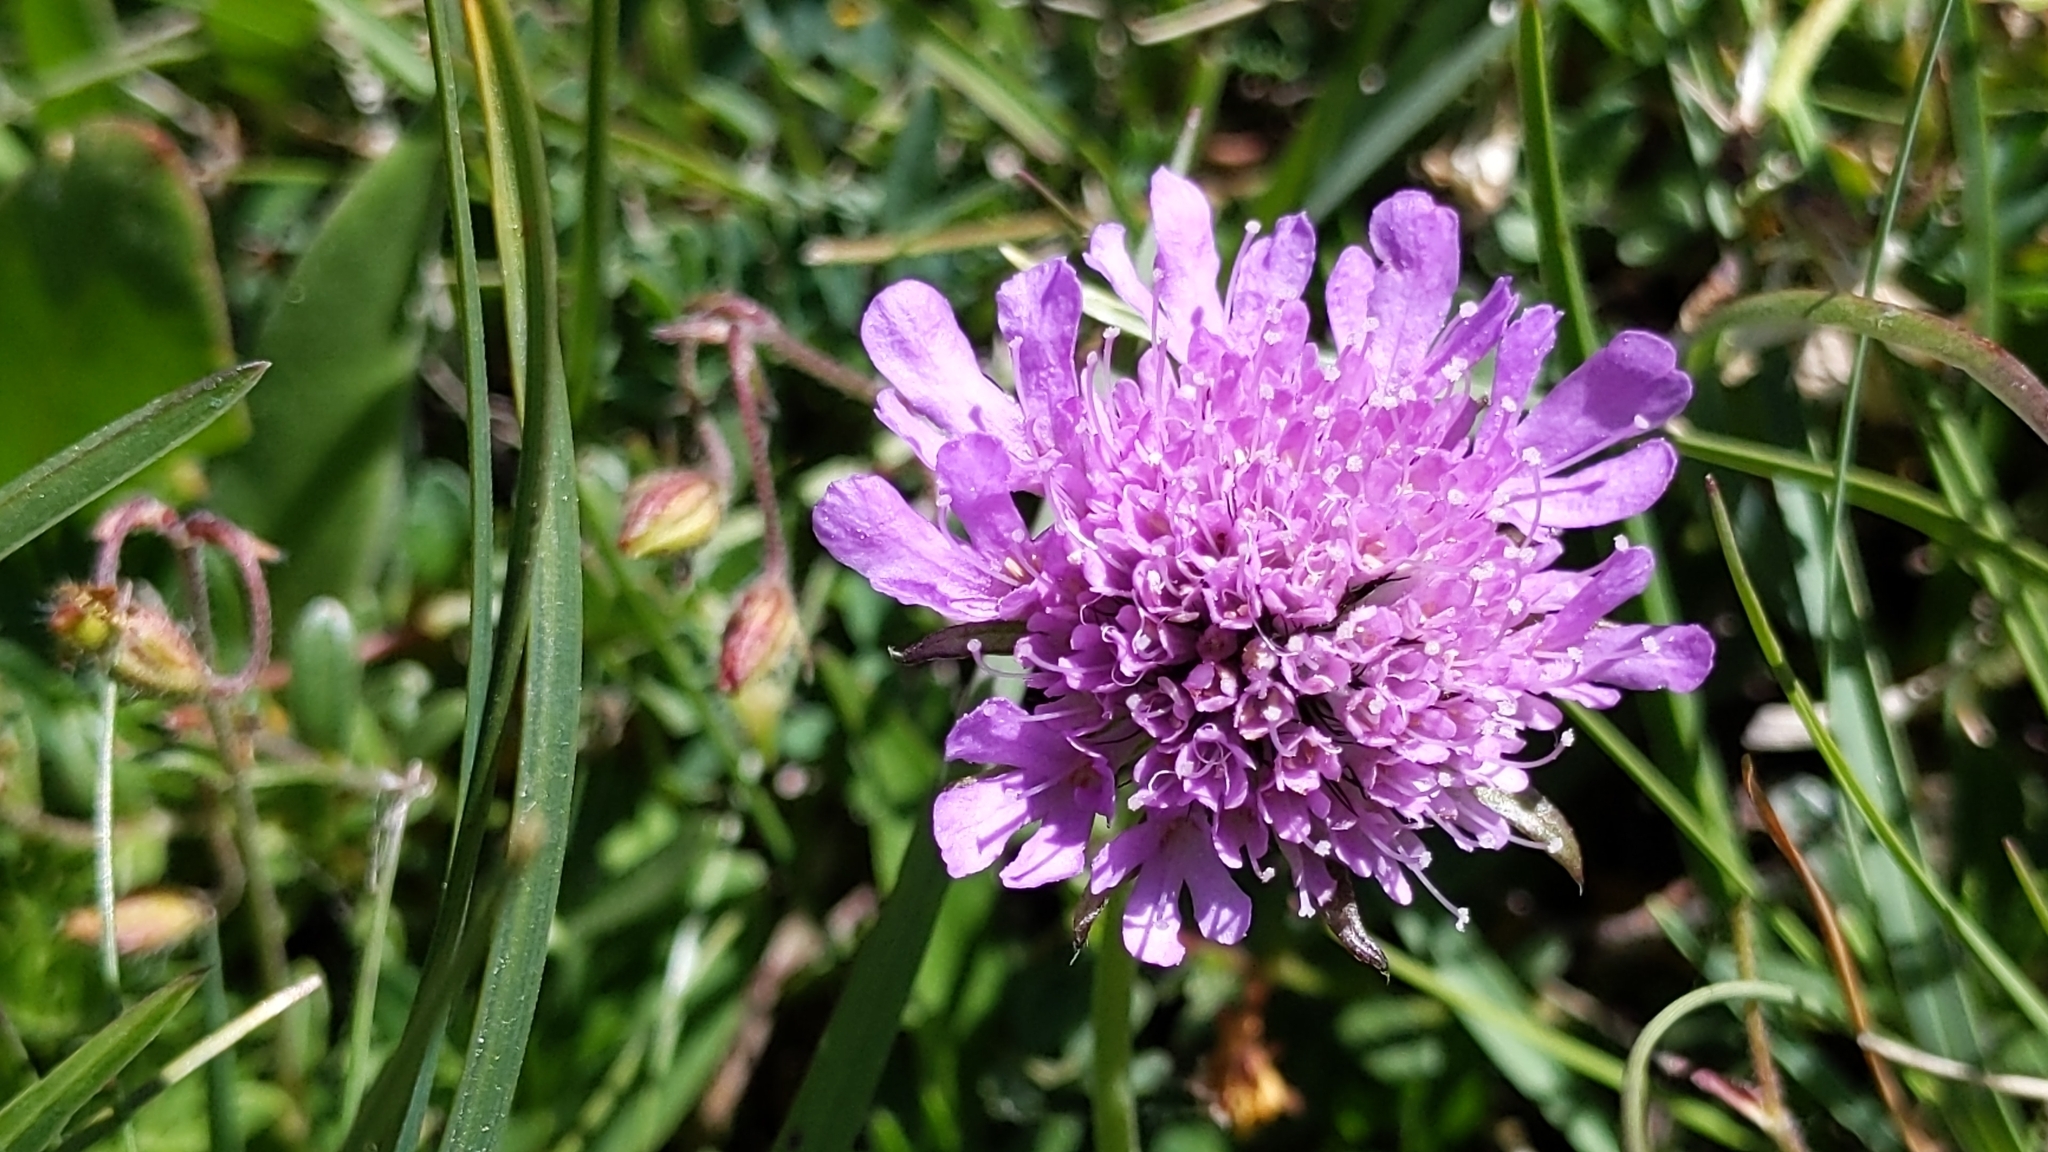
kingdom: Plantae
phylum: Tracheophyta
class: Magnoliopsida
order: Dipsacales
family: Caprifoliaceae
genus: Scabiosa
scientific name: Scabiosa lucida
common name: Shining scabious
